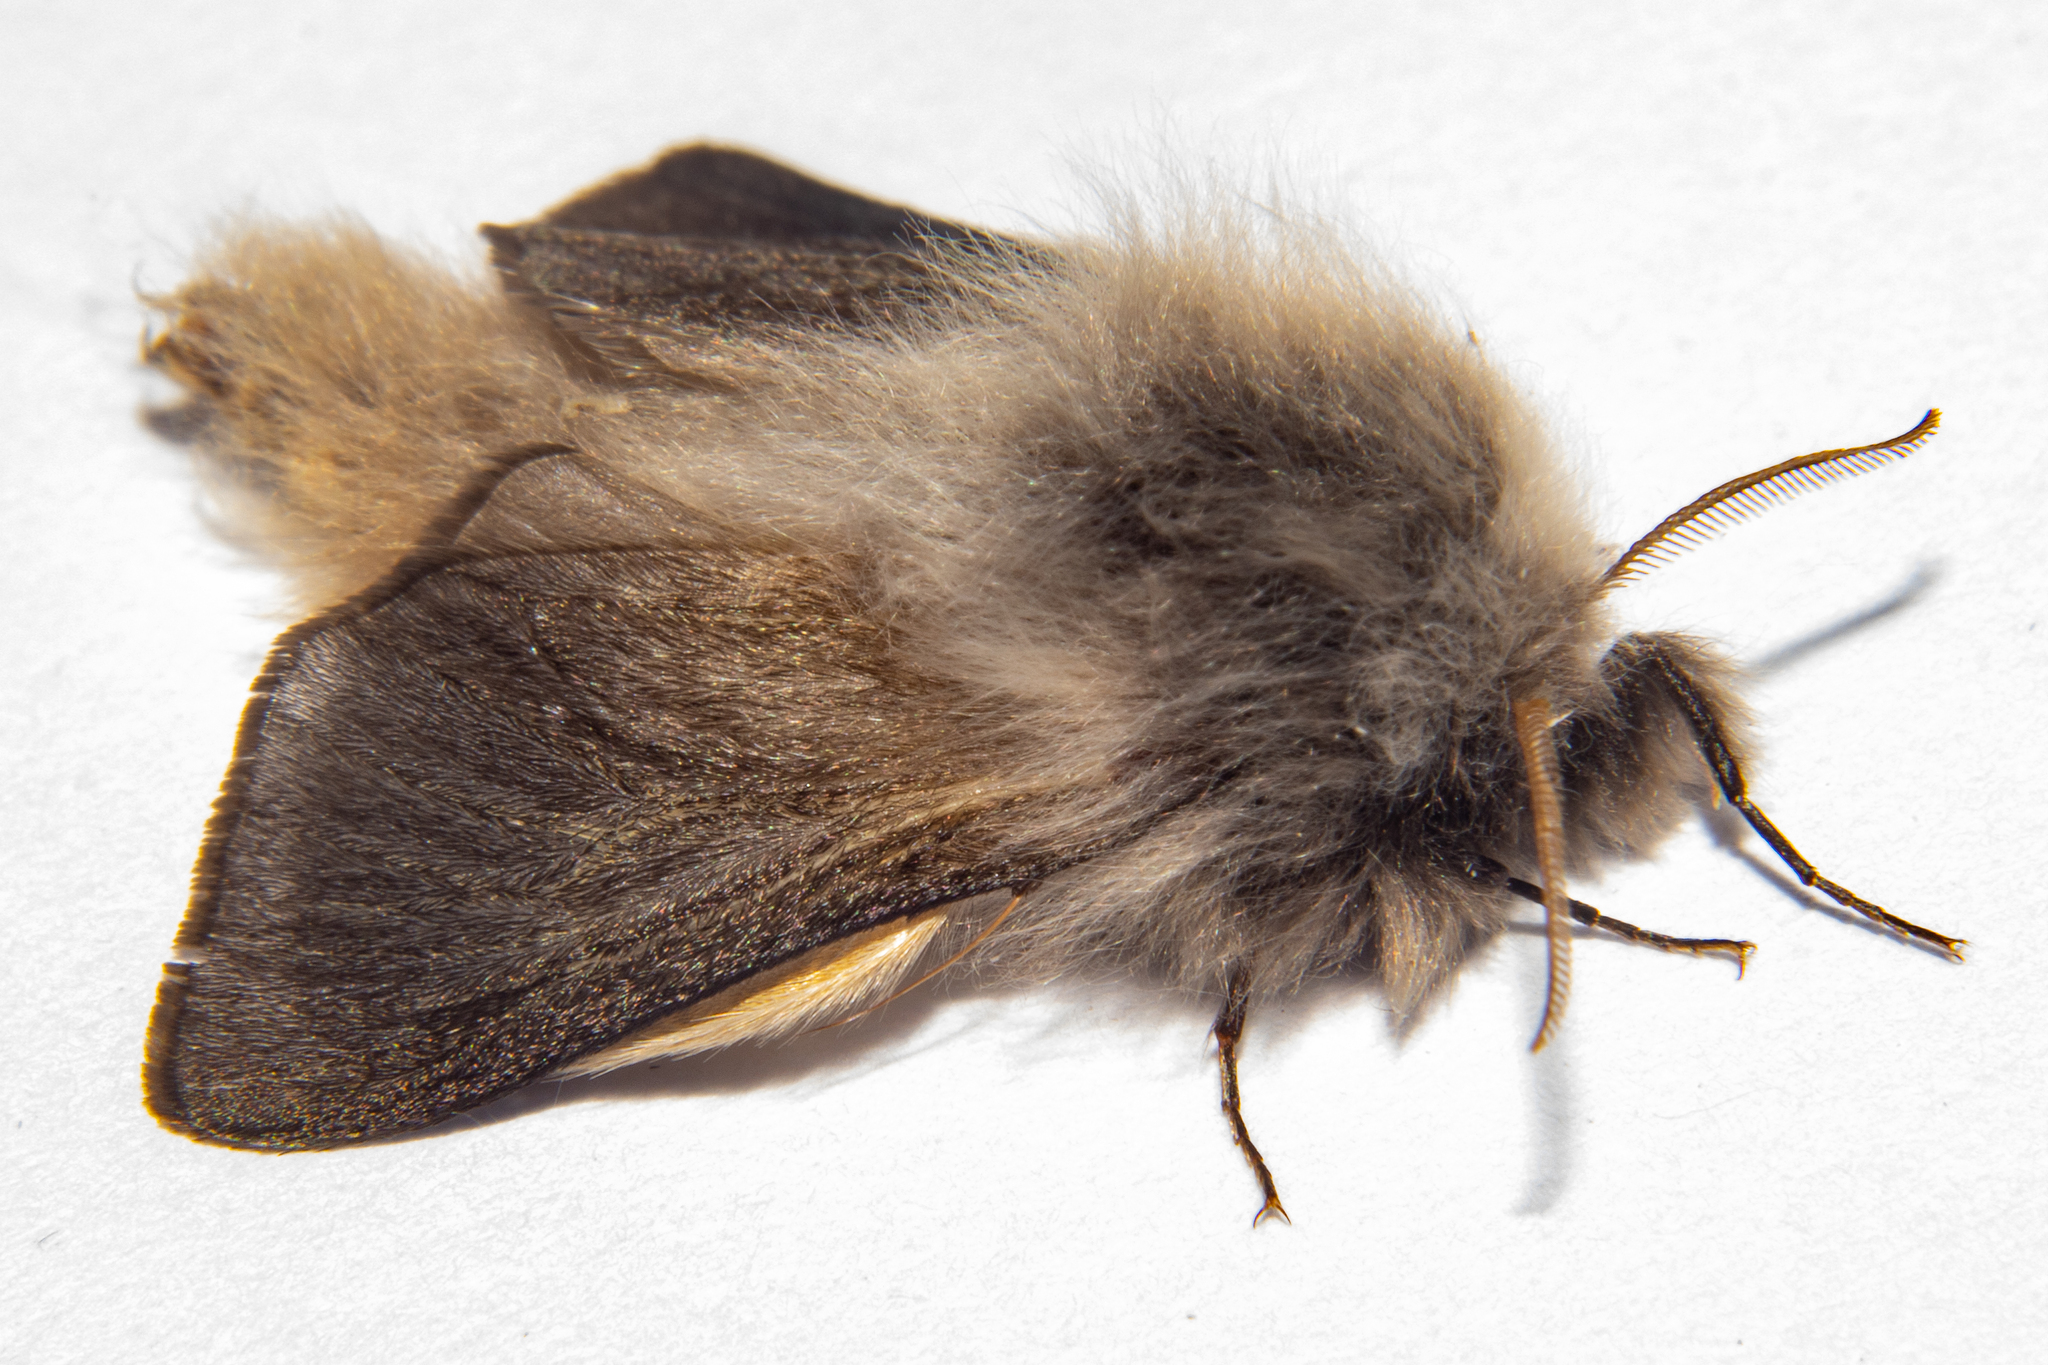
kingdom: Animalia
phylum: Arthropoda
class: Insecta
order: Lepidoptera
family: Psychidae
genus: Orophora
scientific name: Orophora unicolor
